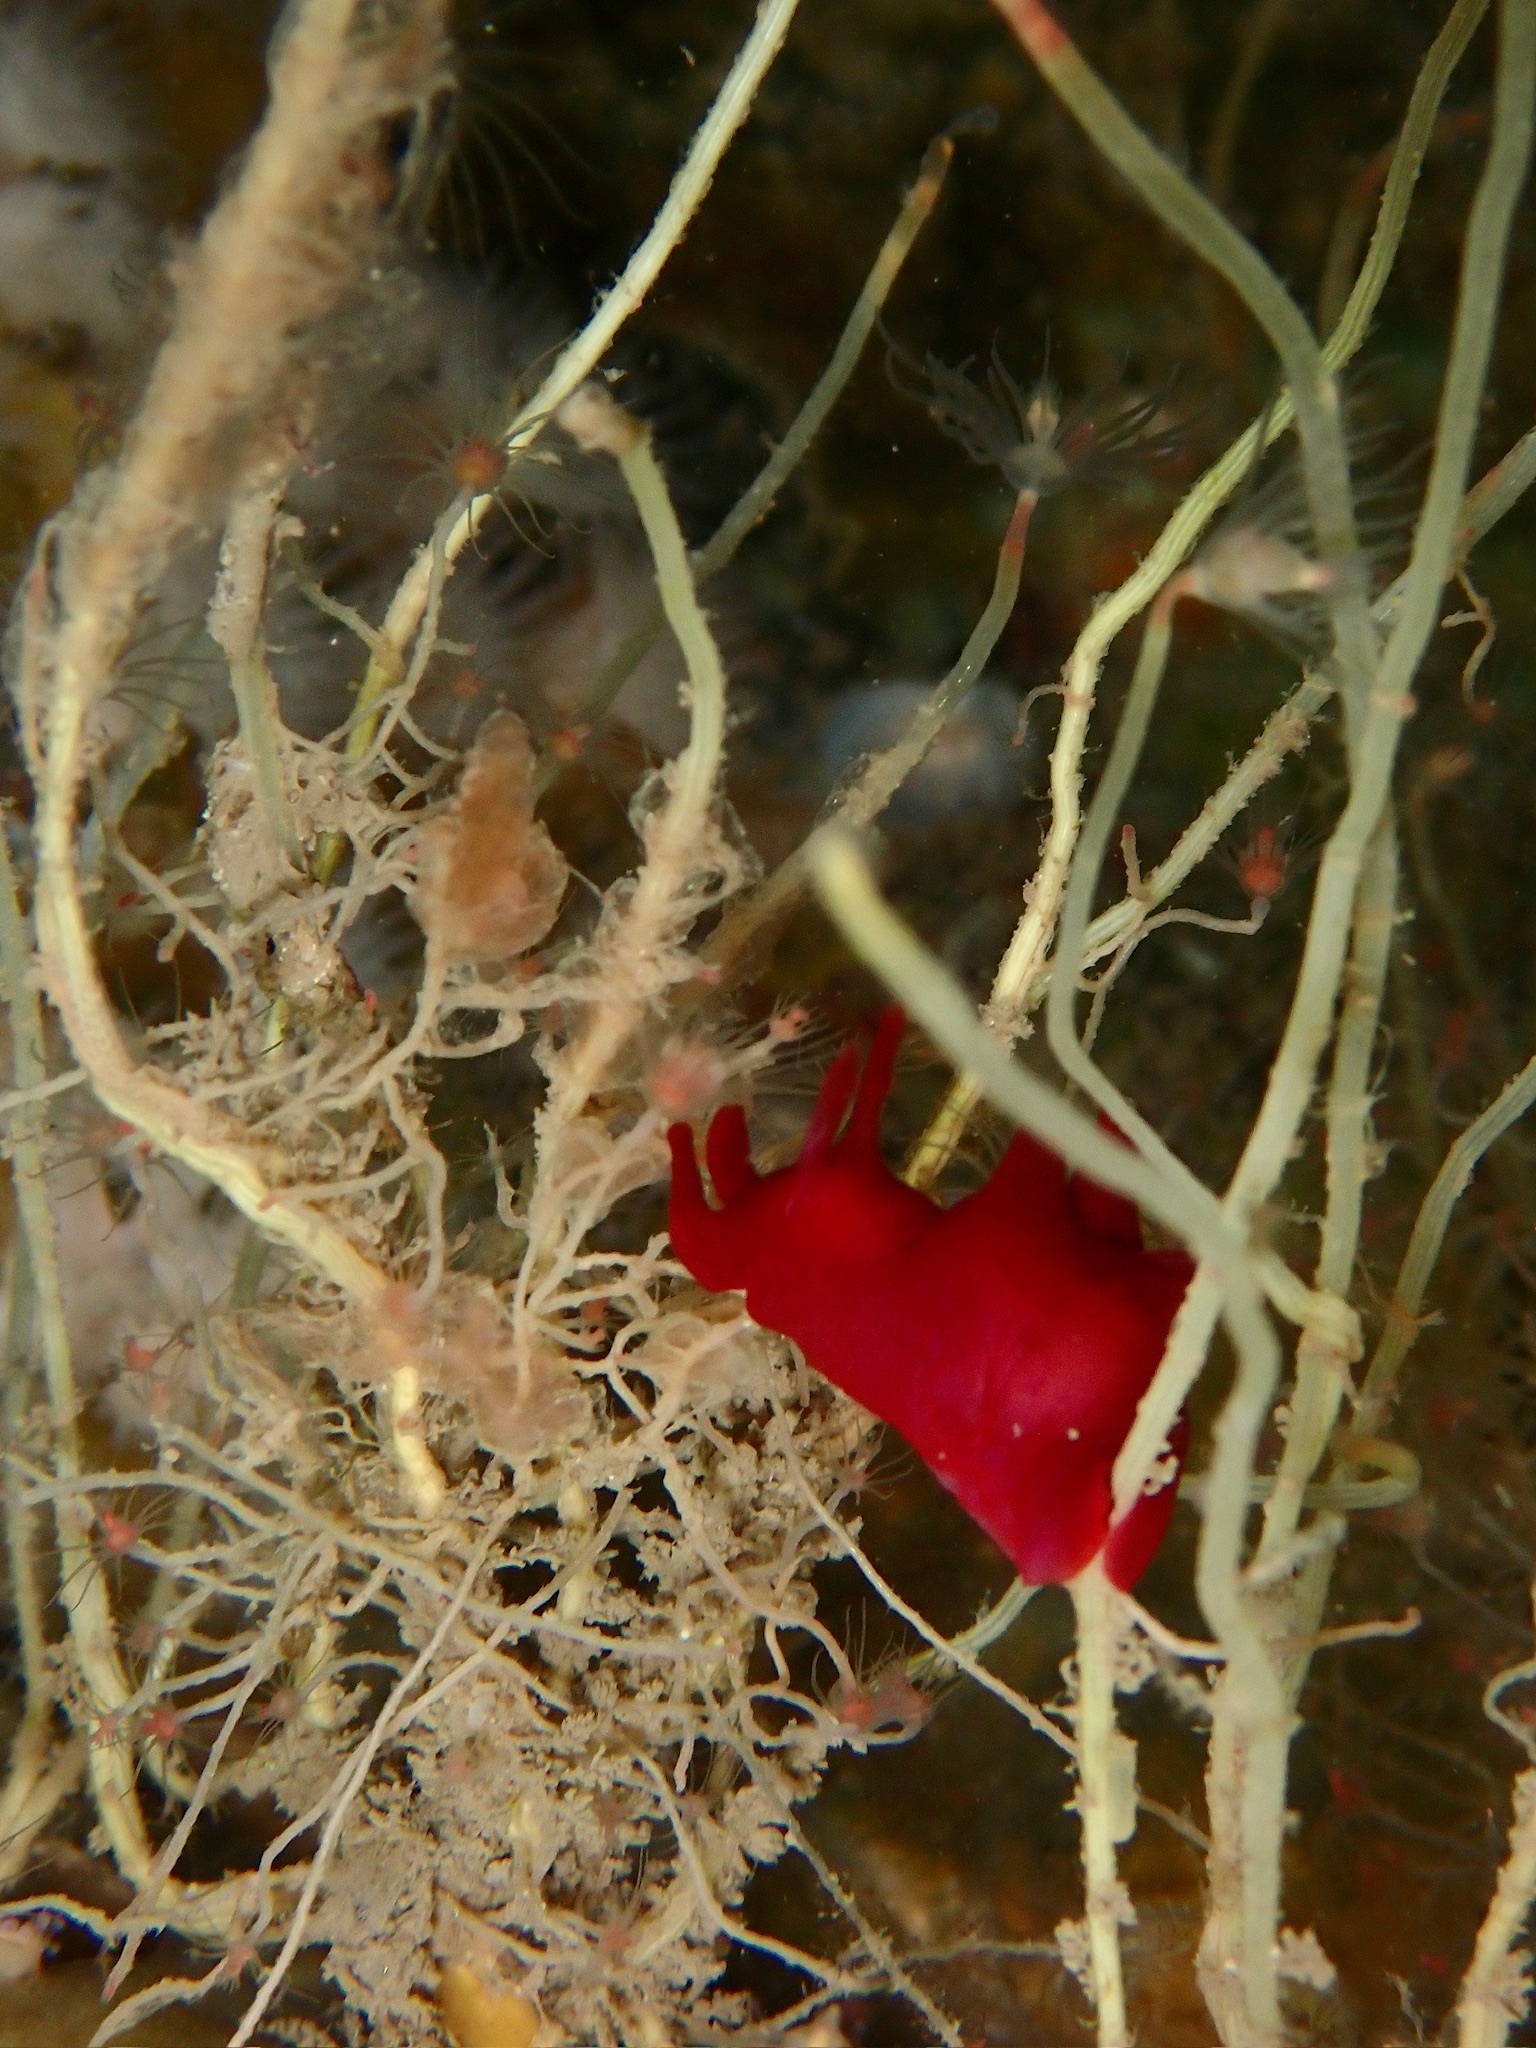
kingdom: Animalia
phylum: Mollusca
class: Gastropoda
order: Aplysiida
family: Aplysiidae
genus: Aplysia
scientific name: Aplysia punctata
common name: Common sea hare
